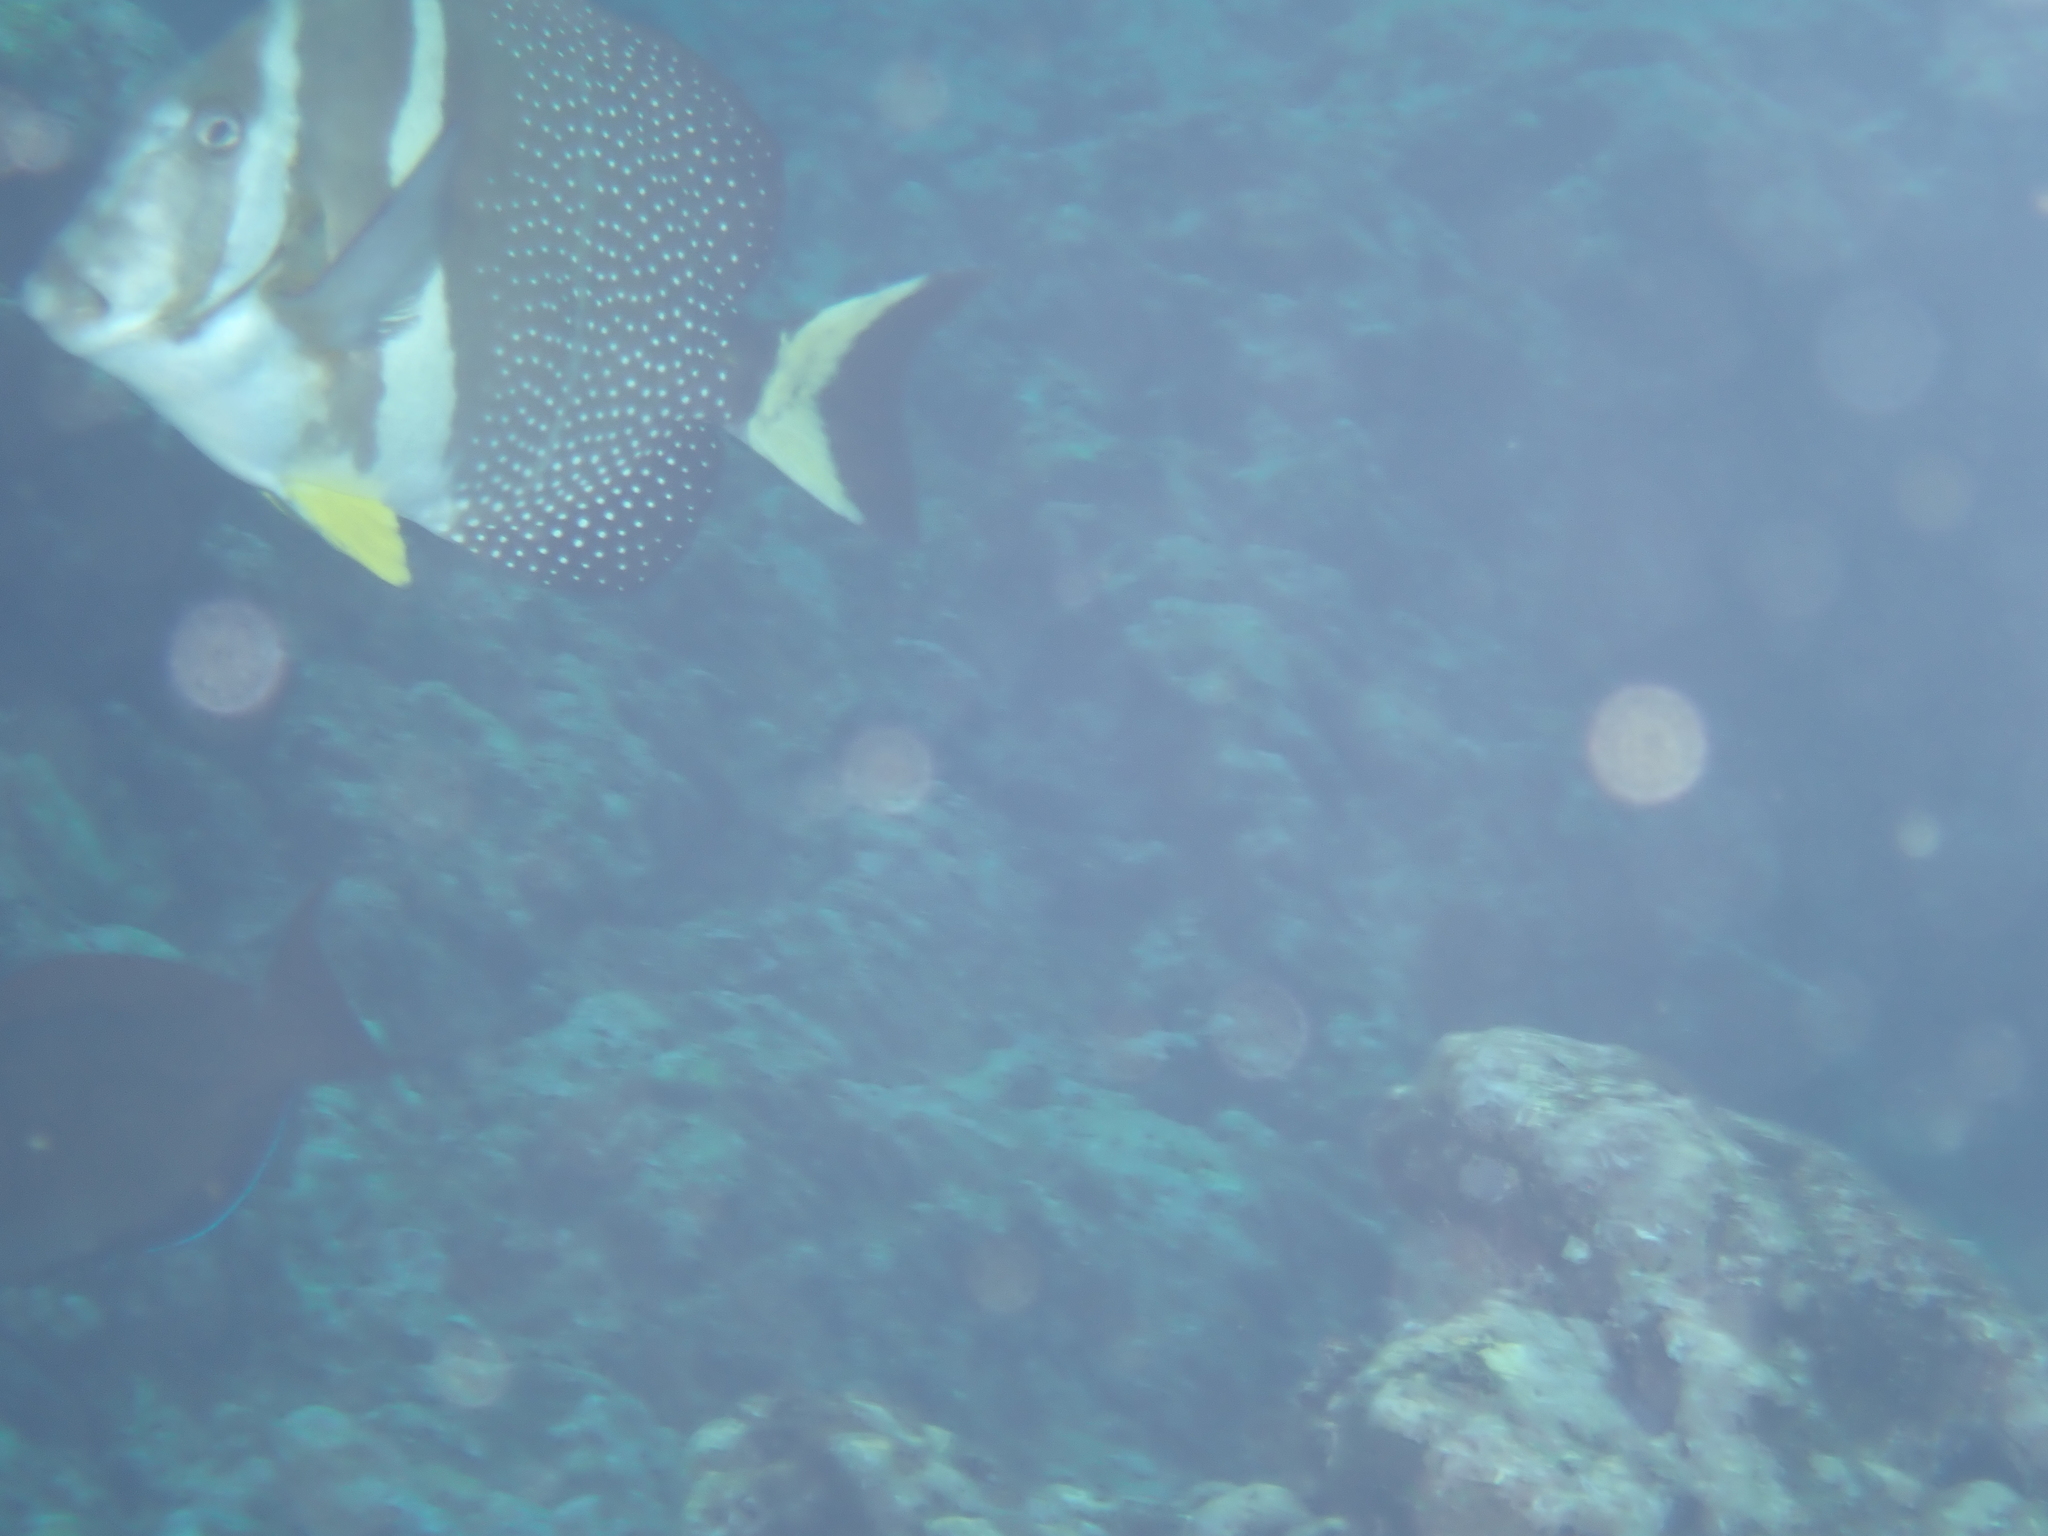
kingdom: Animalia
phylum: Chordata
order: Perciformes
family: Acanthuridae
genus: Acanthurus
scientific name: Acanthurus guttatus
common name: Whitespotted surgeonfish
